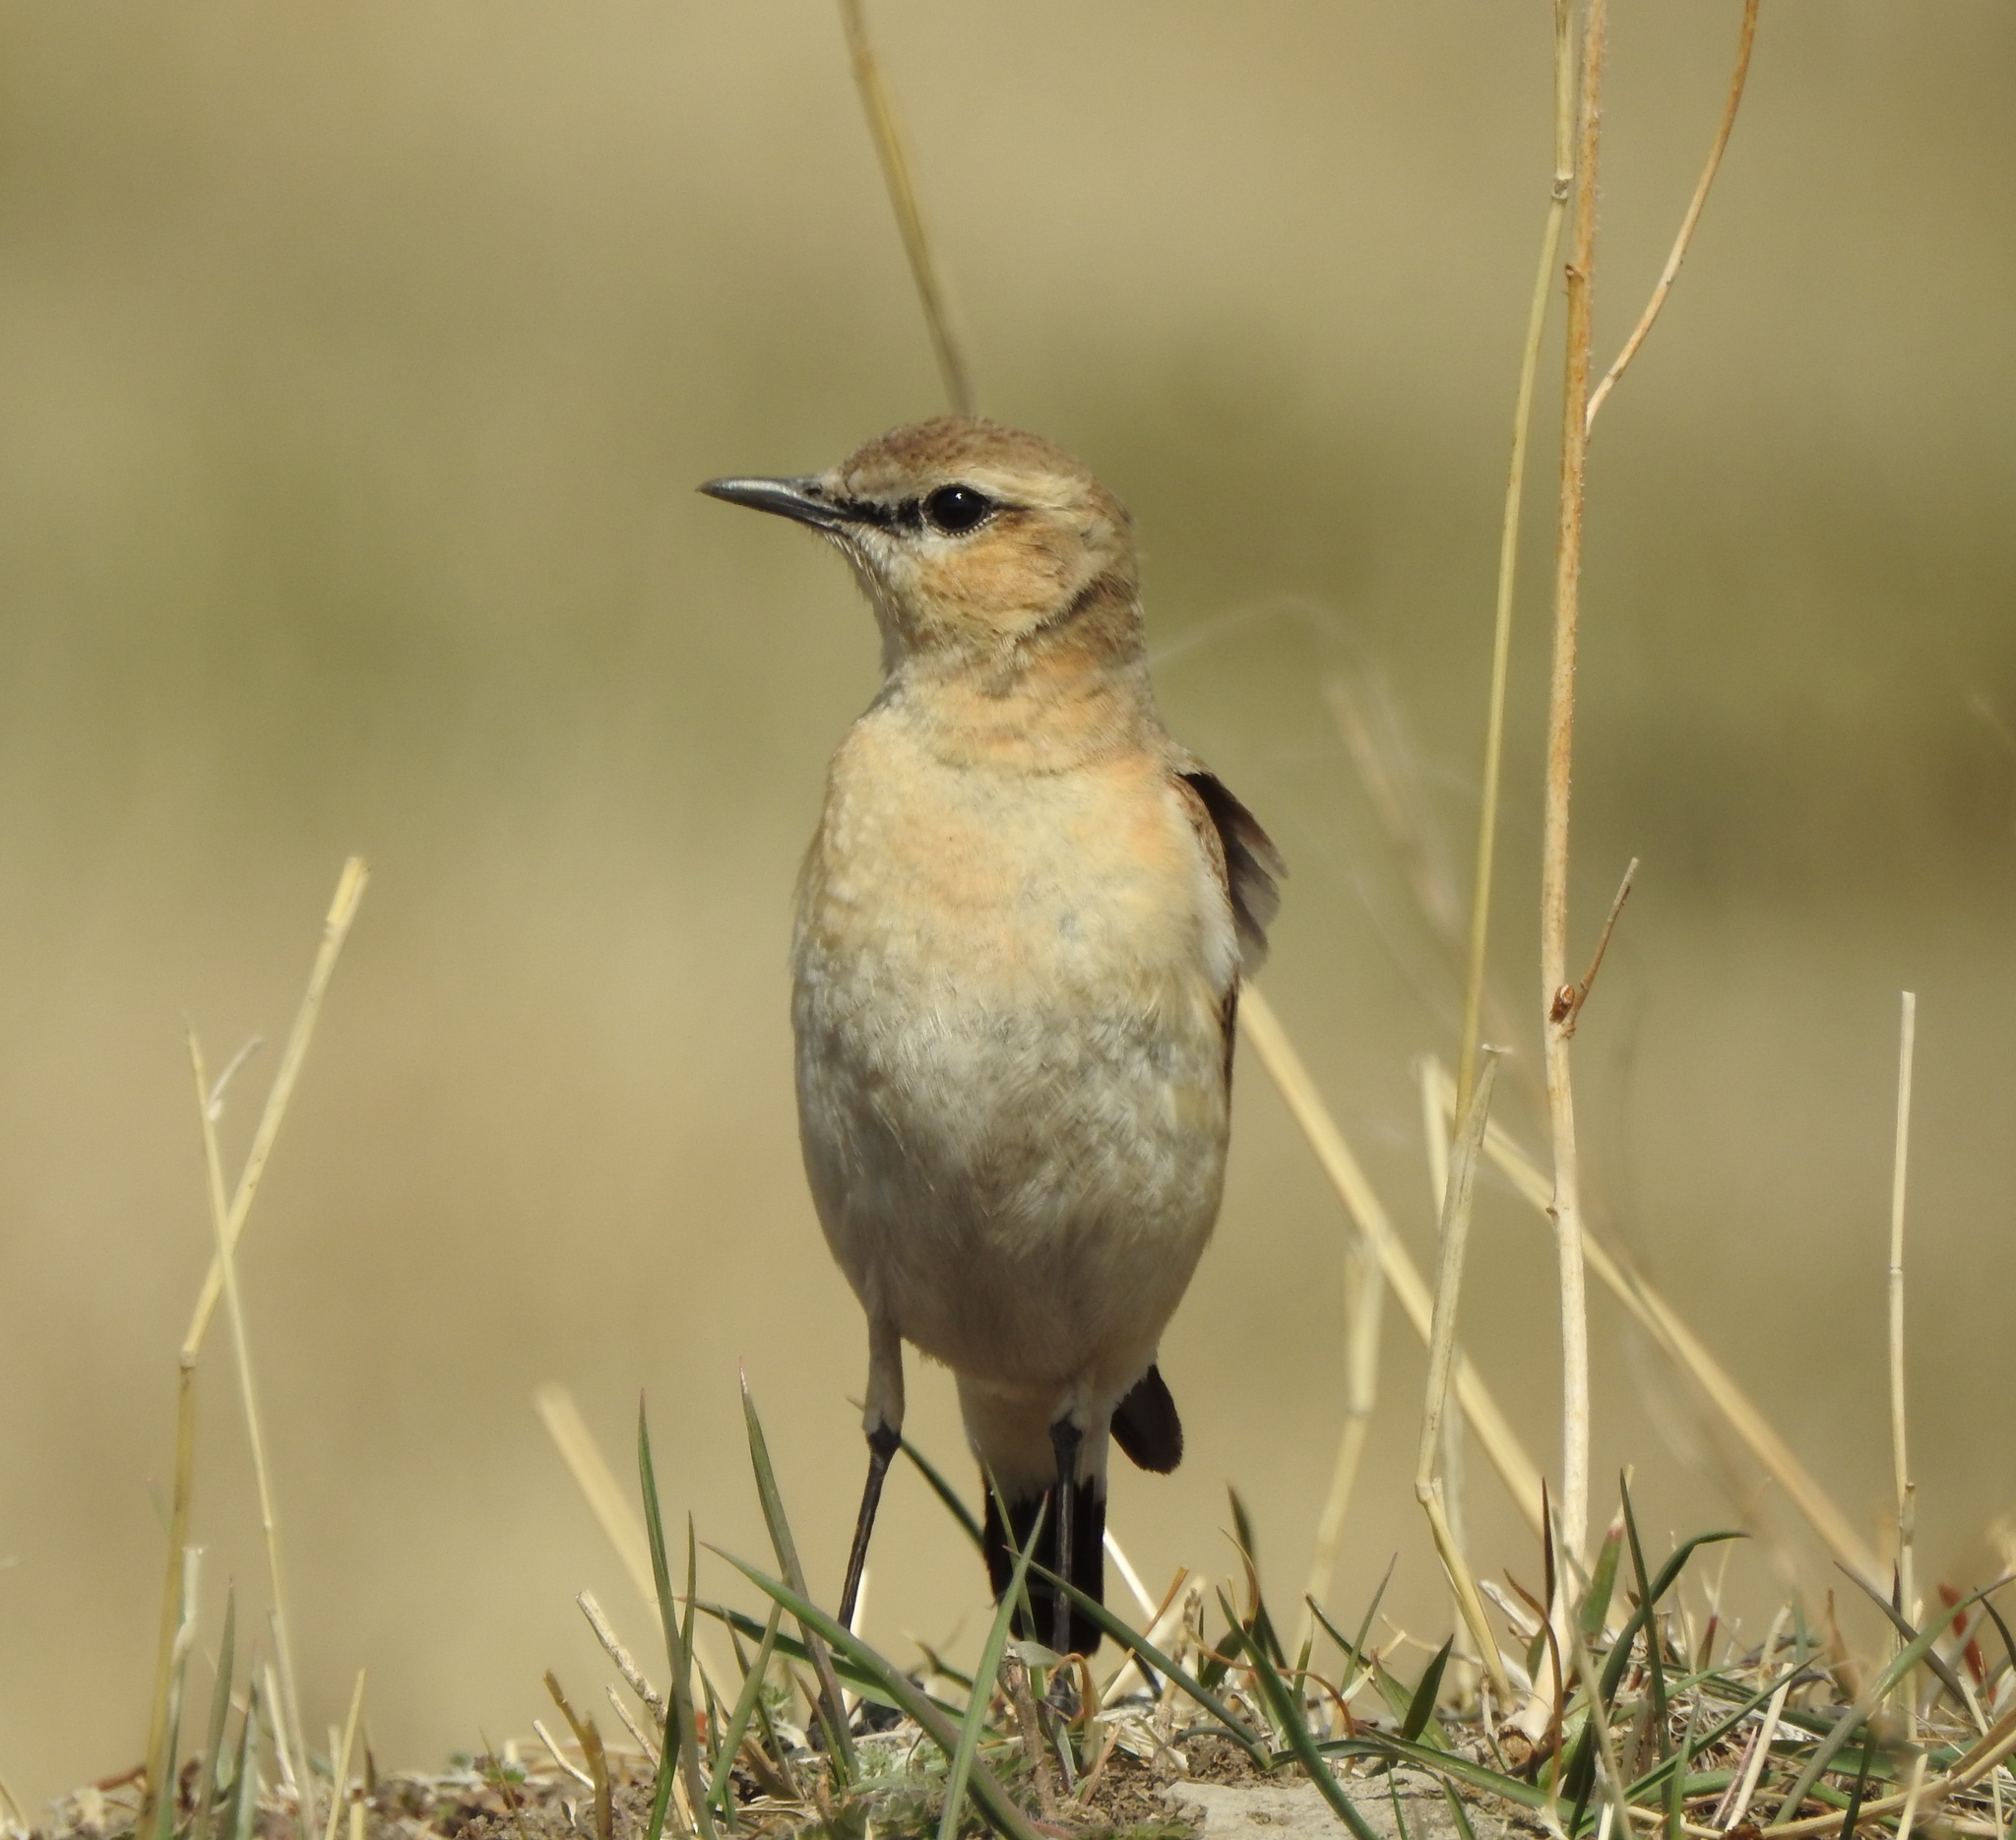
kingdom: Animalia
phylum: Chordata
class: Aves
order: Passeriformes
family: Muscicapidae
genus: Oenanthe
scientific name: Oenanthe oenanthe
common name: Northern wheatear
